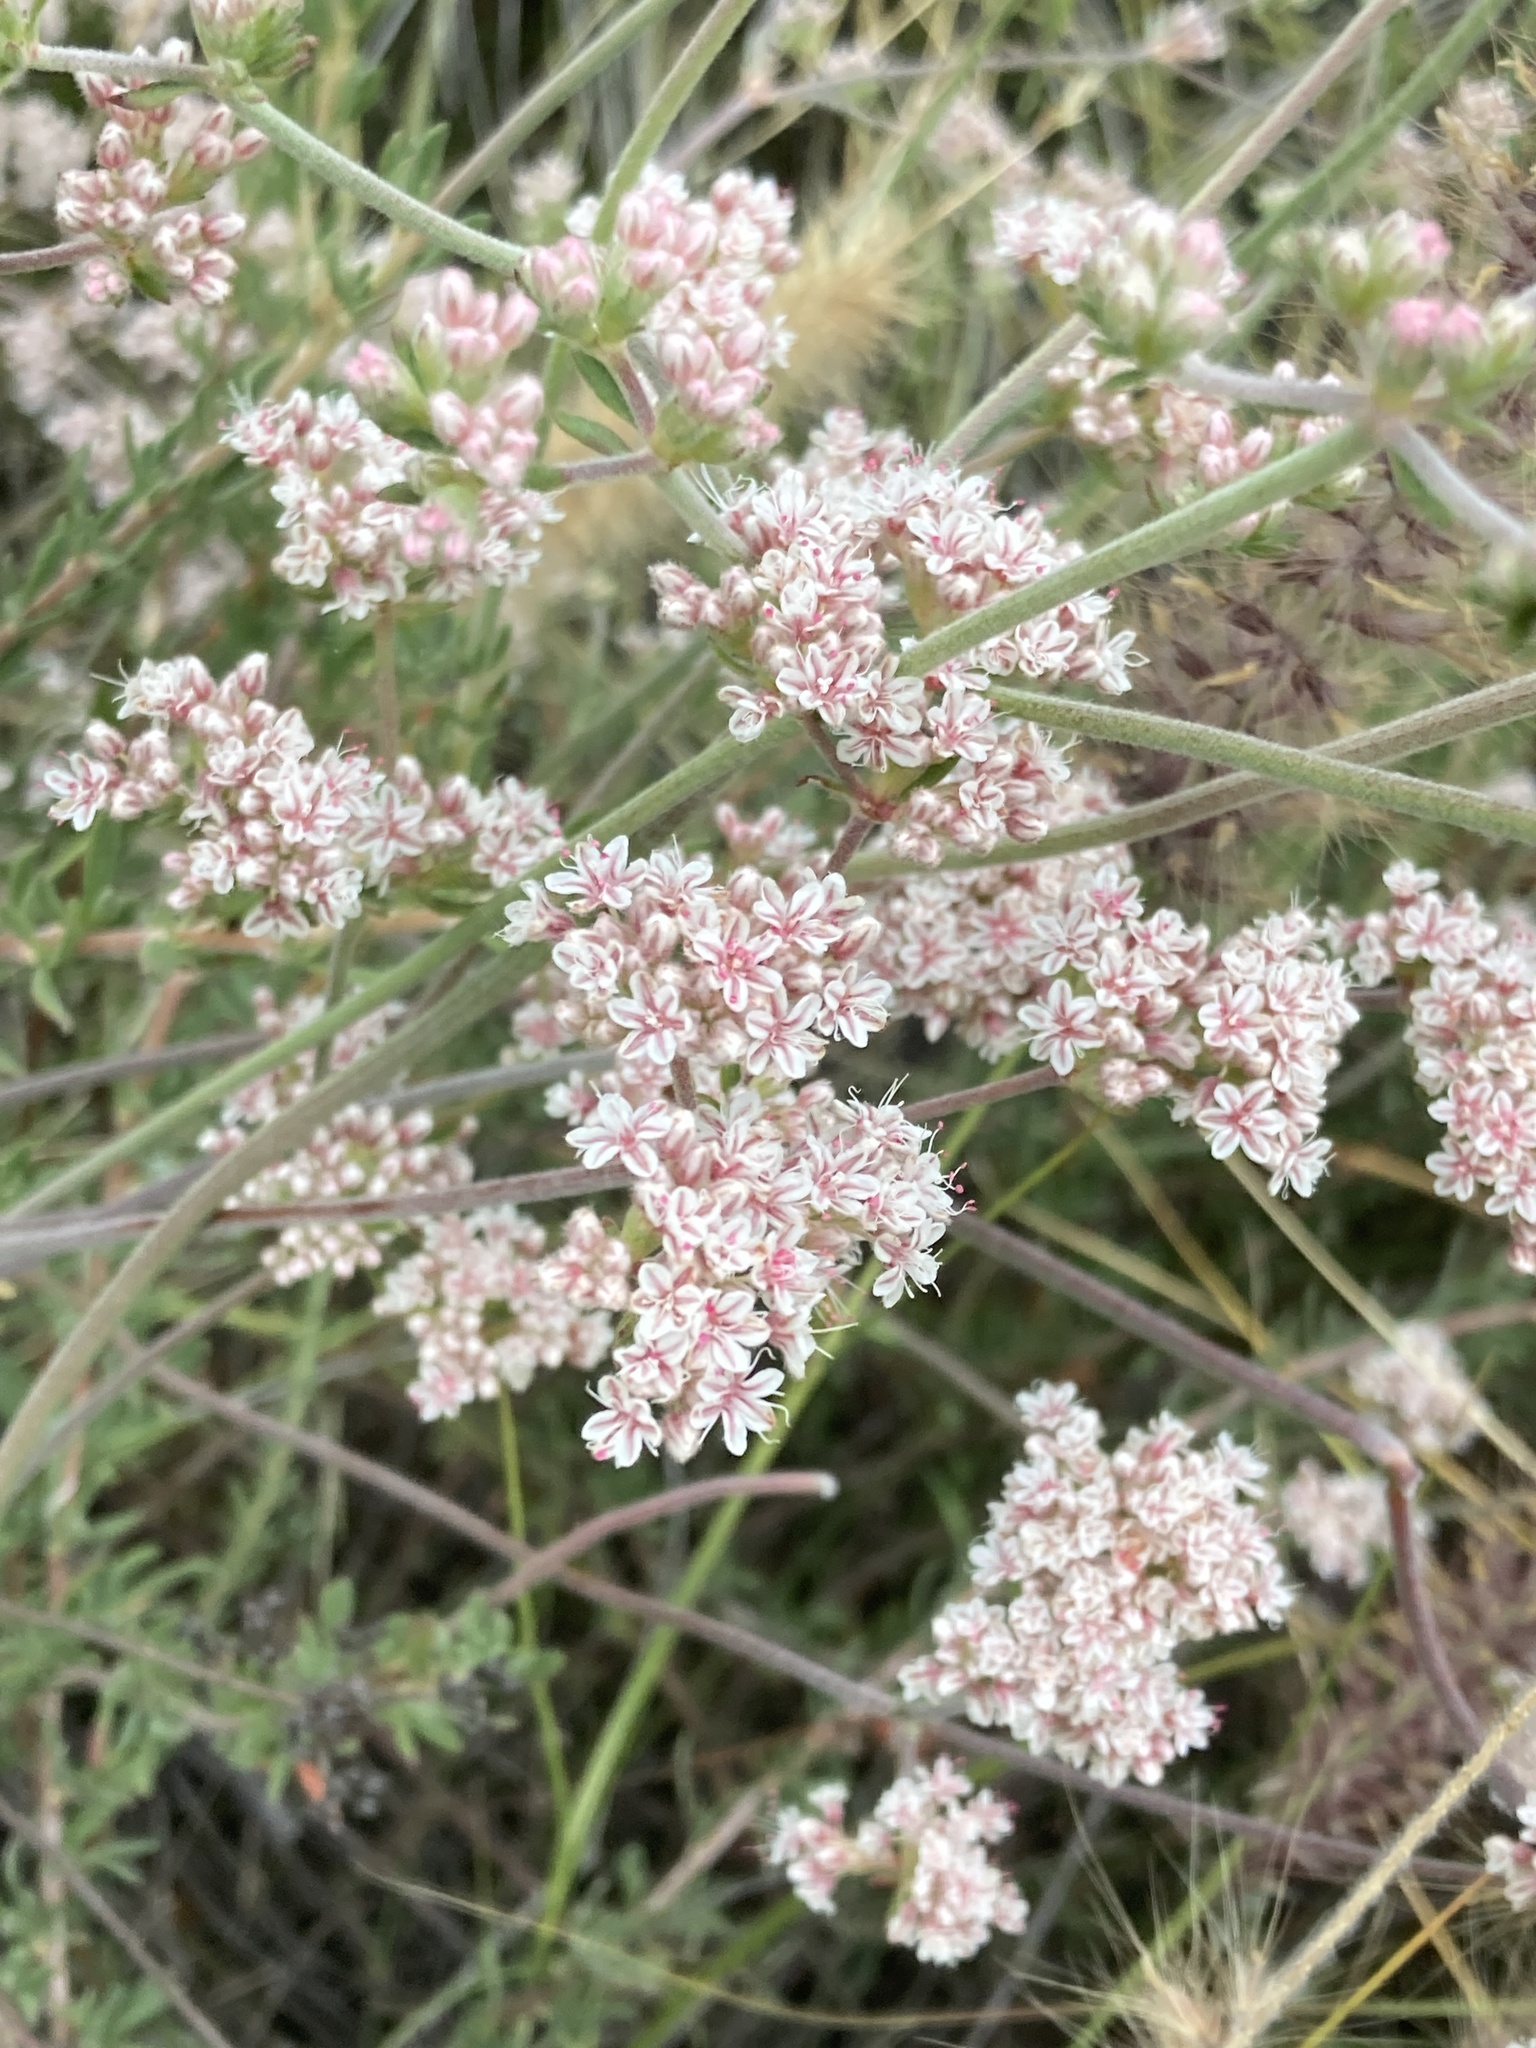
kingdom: Plantae
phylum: Tracheophyta
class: Magnoliopsida
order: Caryophyllales
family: Polygonaceae
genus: Eriogonum
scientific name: Eriogonum fasciculatum
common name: California wild buckwheat
